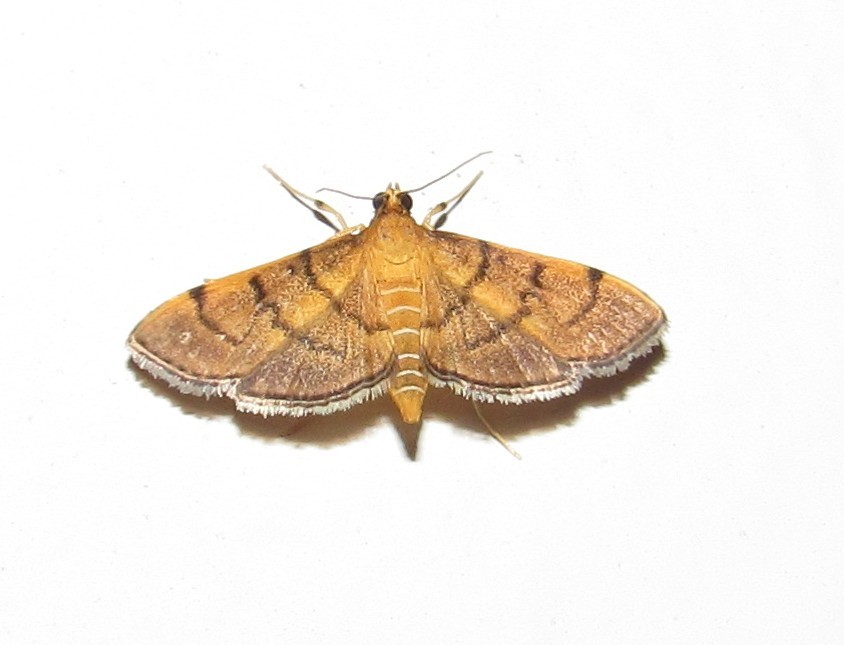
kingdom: Animalia
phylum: Arthropoda
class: Insecta
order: Lepidoptera
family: Crambidae
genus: Omiodes
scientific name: Omiodes indicata
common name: Bean-leaf webworm moth
